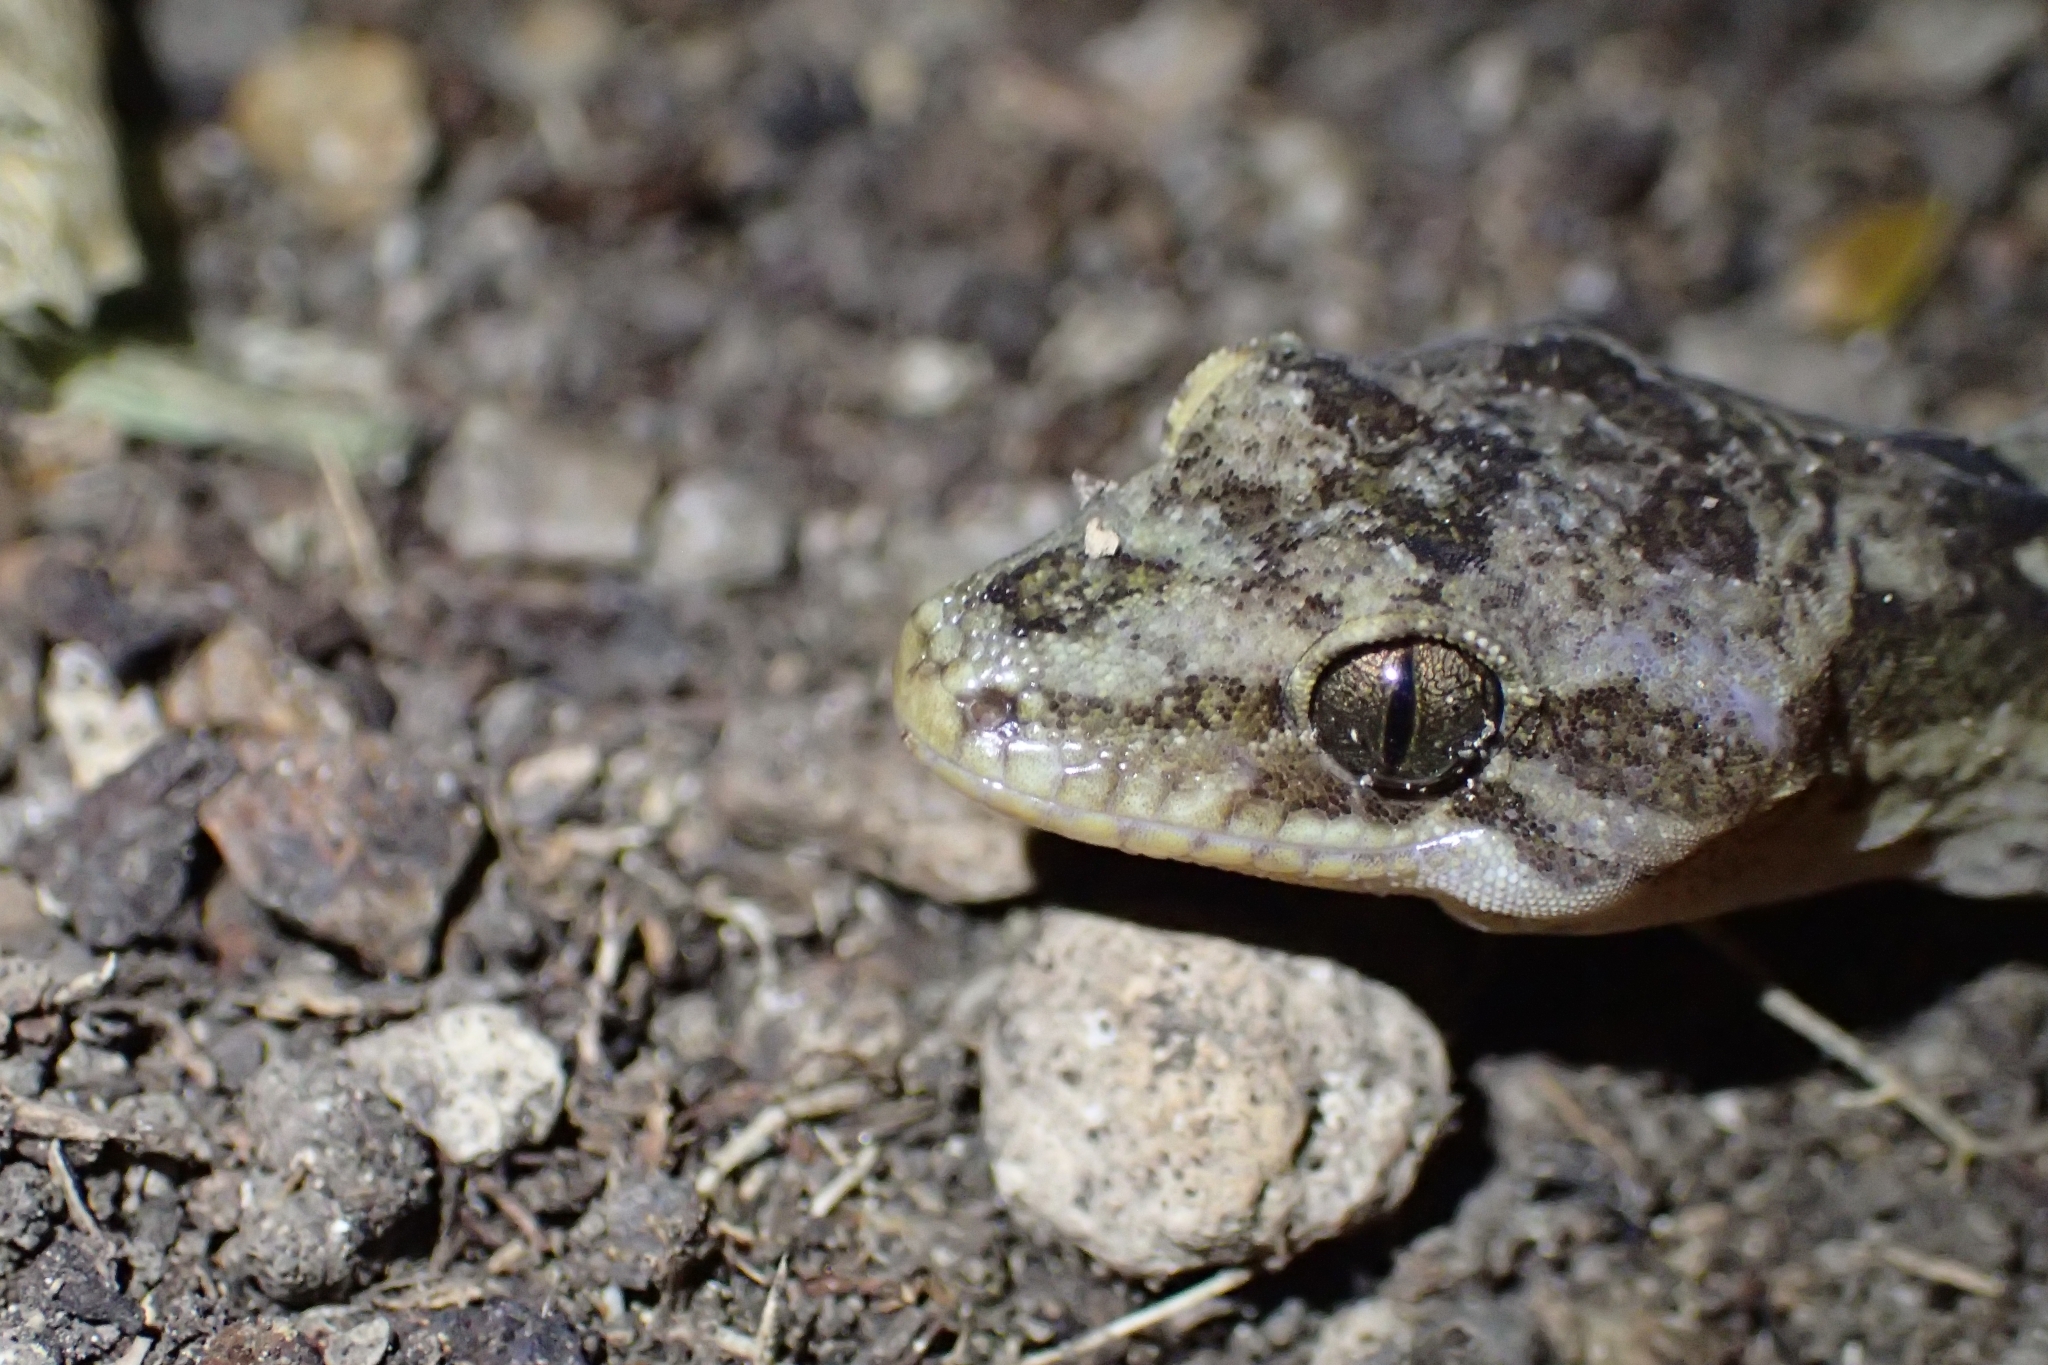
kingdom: Animalia
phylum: Chordata
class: Squamata
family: Diplodactylidae
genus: Dactylocnemis
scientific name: Dactylocnemis pacificus
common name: Pacific gecko
